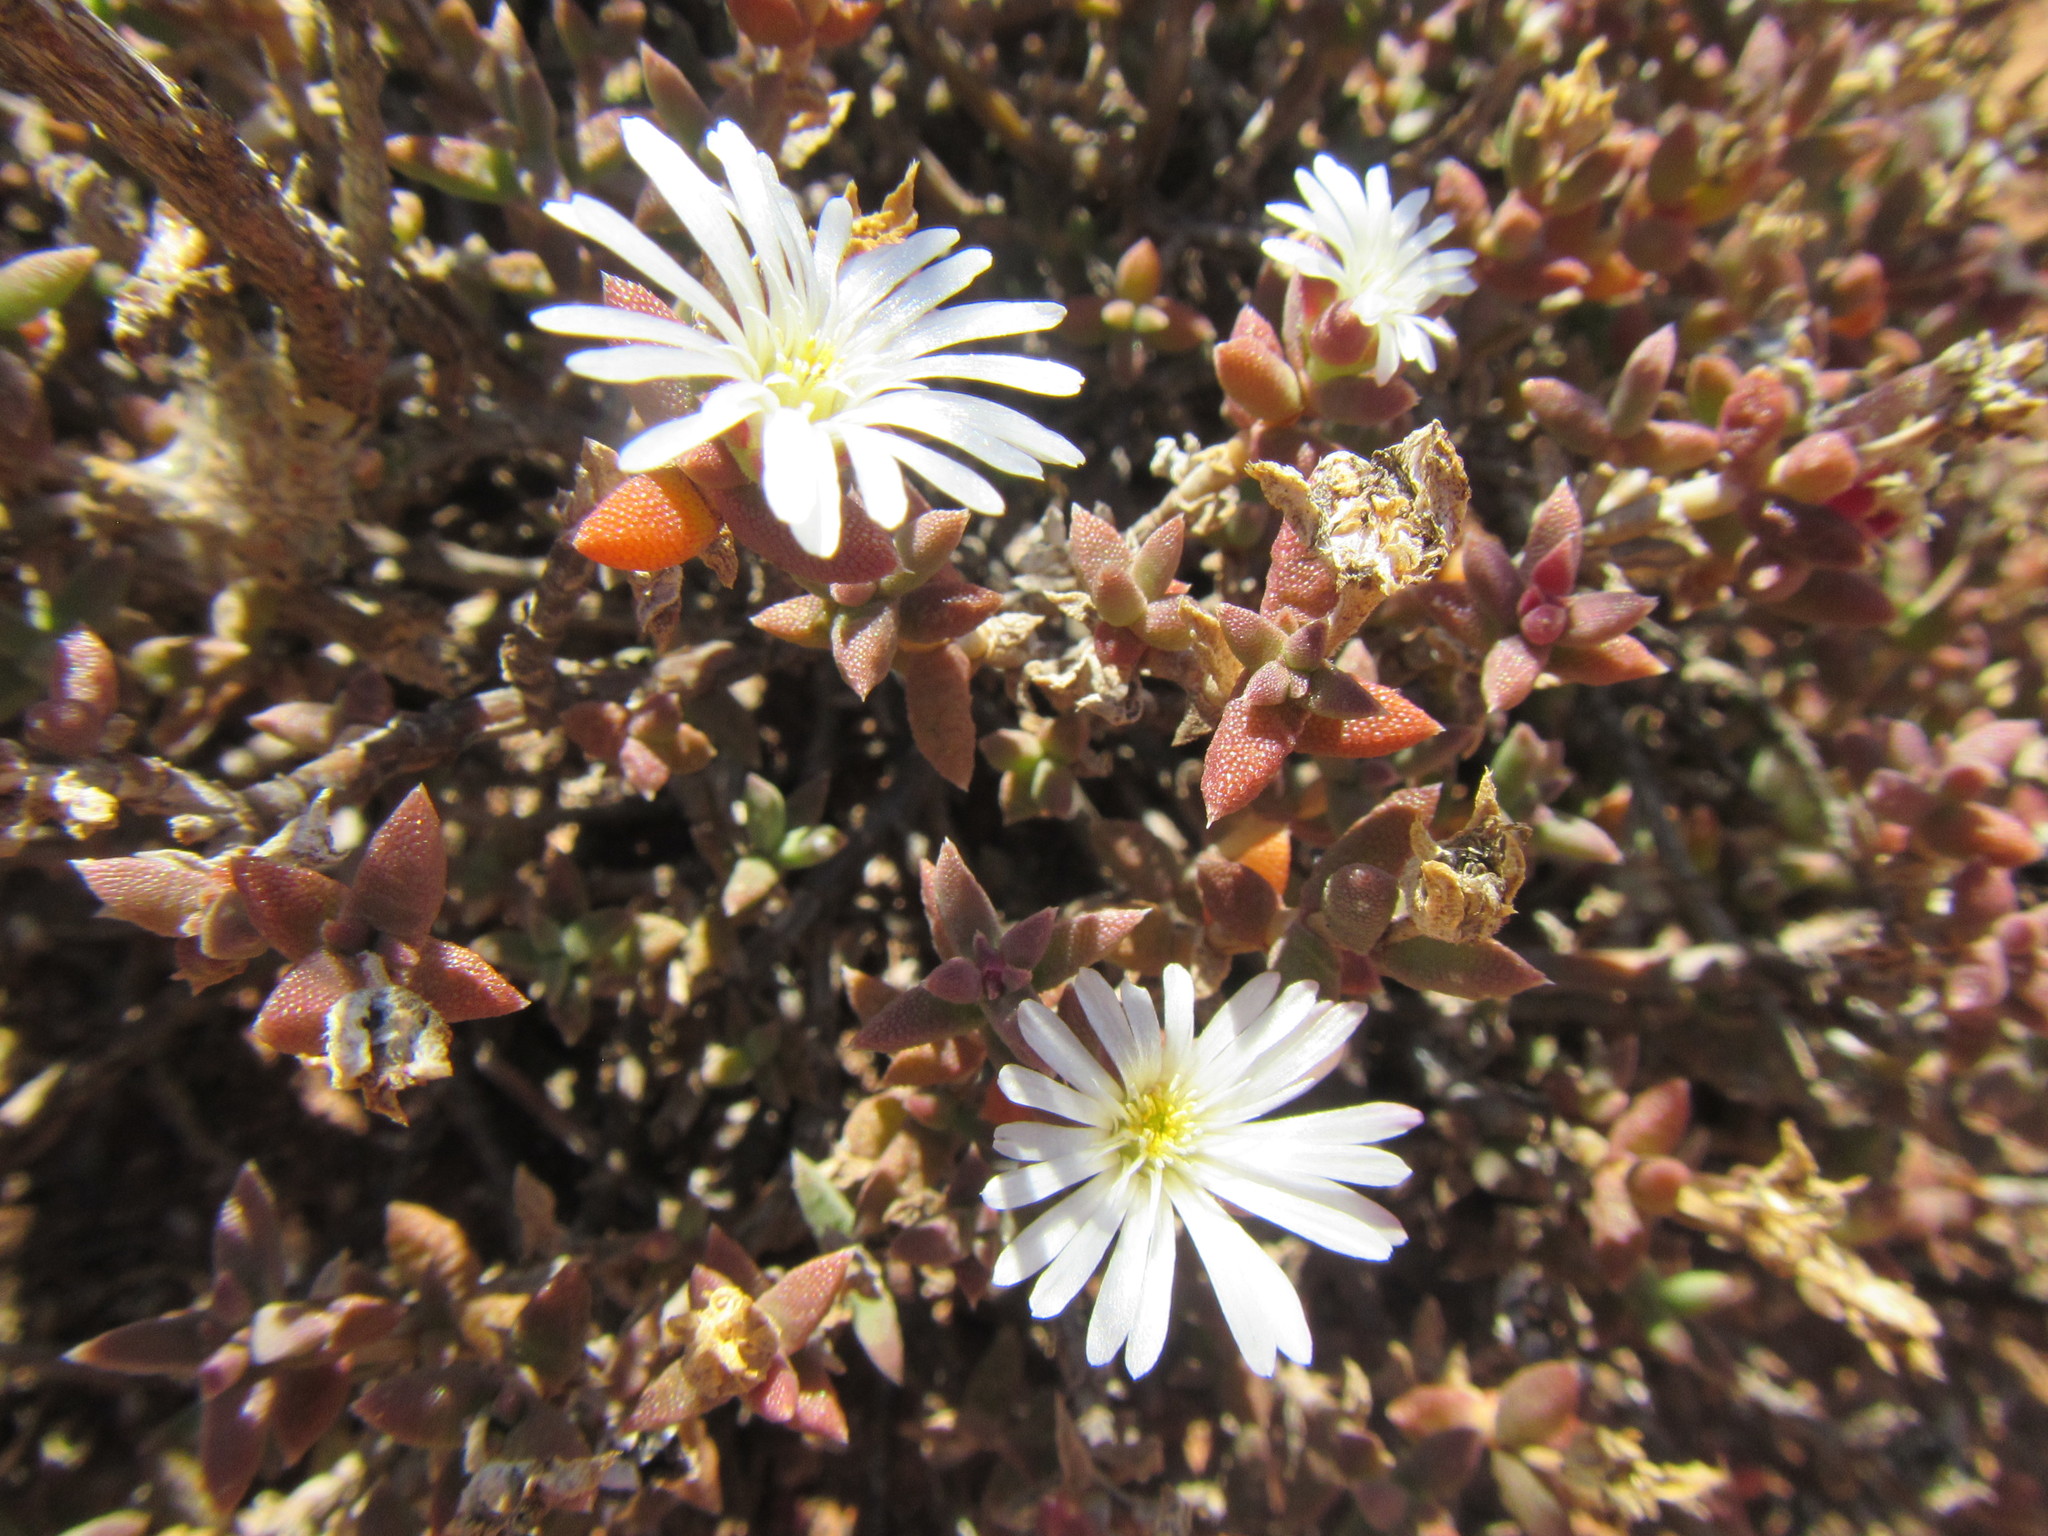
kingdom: Plantae
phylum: Tracheophyta
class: Magnoliopsida
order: Caryophyllales
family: Aizoaceae
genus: Trichodiadema
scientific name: Trichodiadema attonsum
